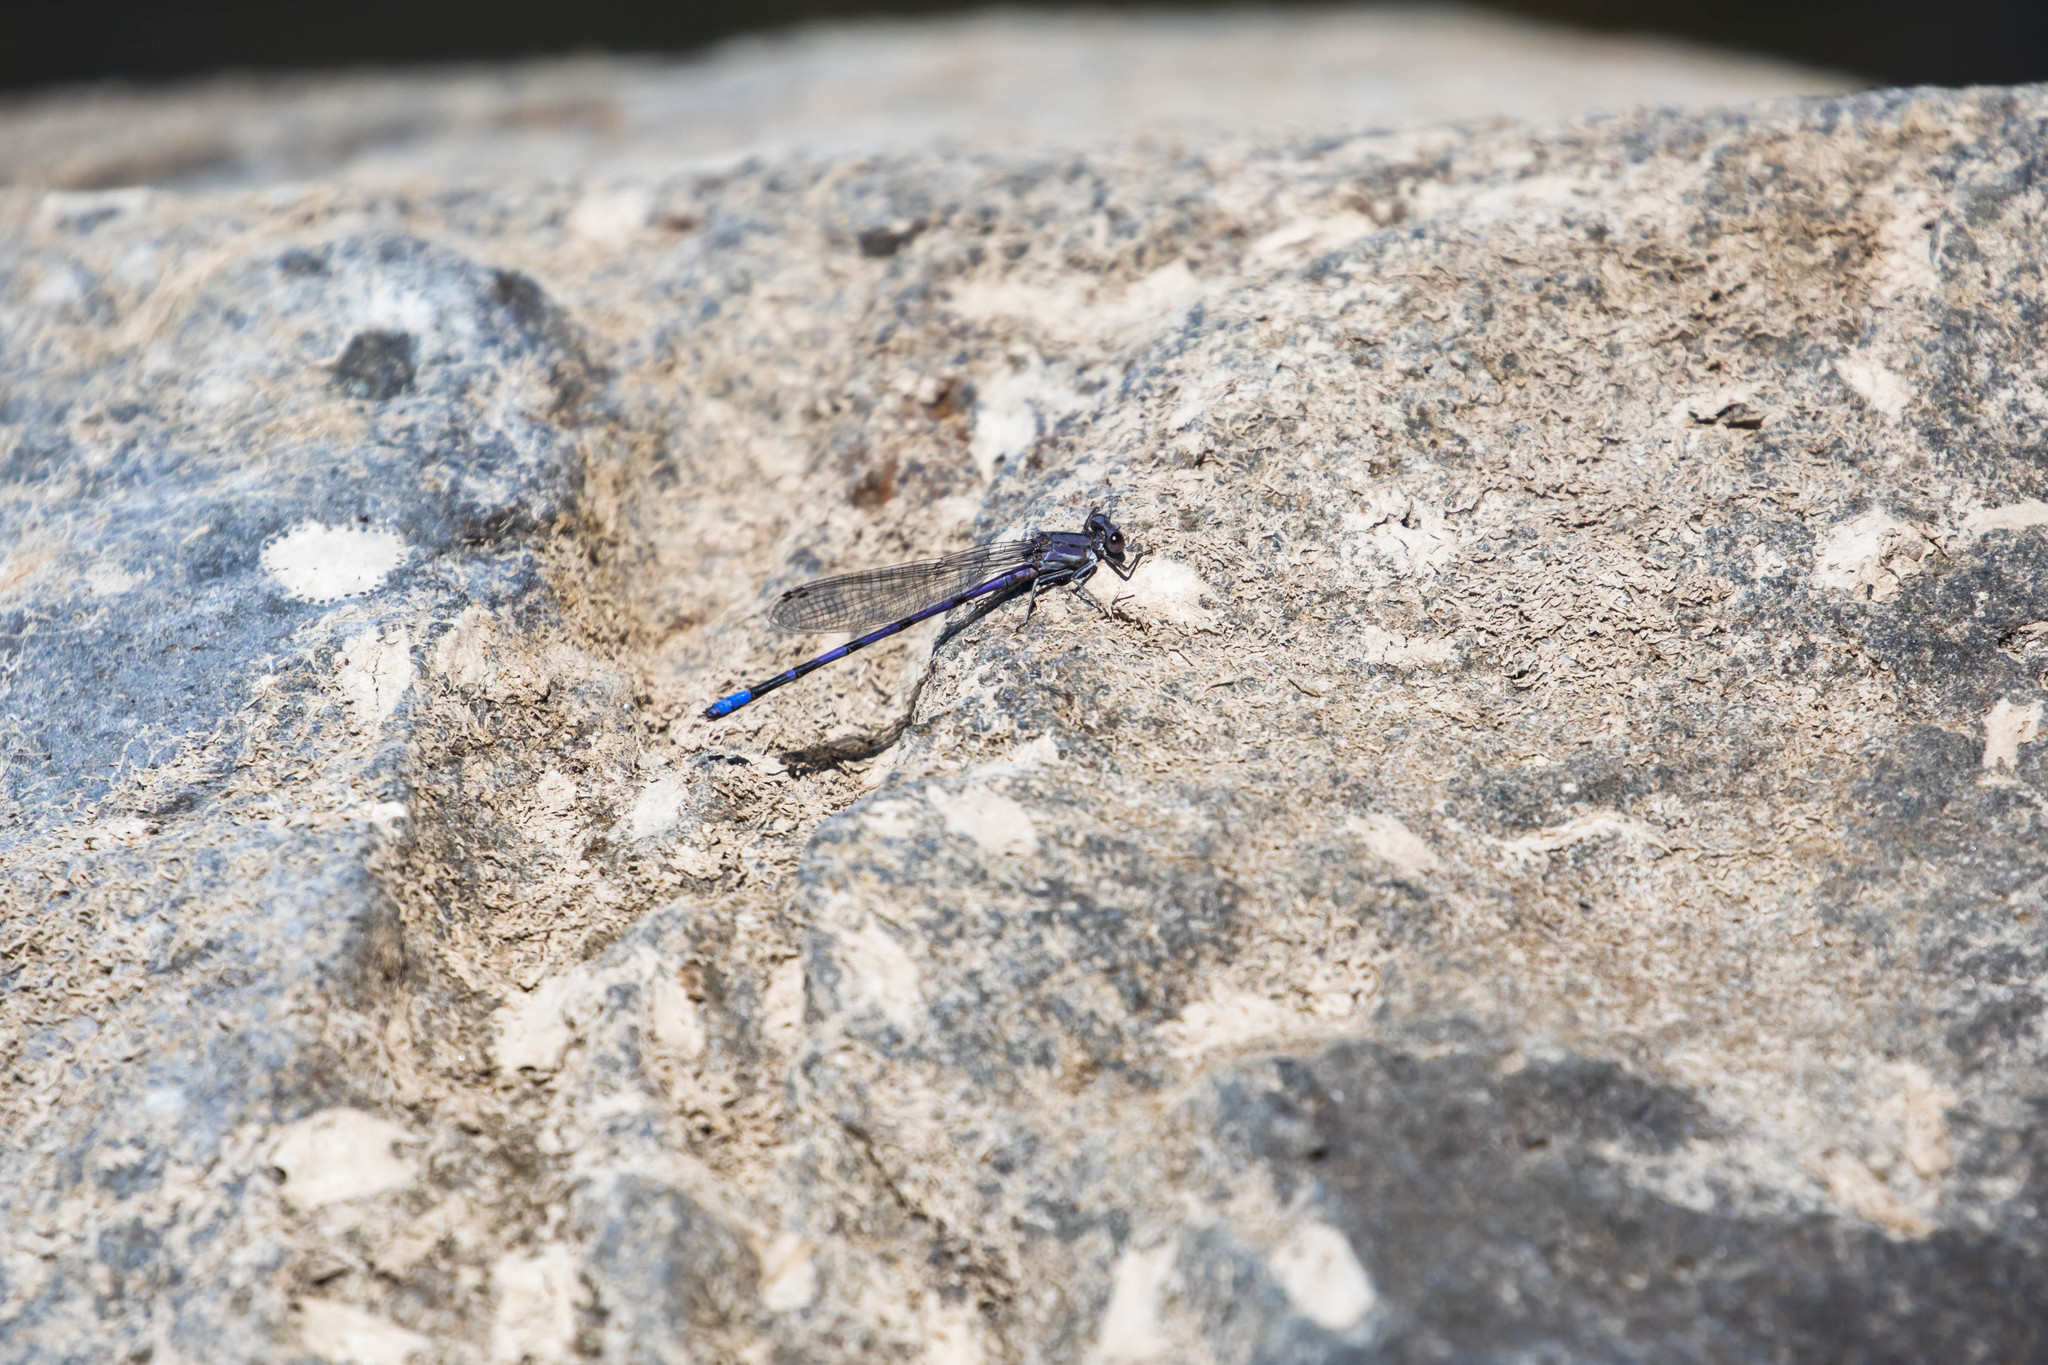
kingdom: Animalia
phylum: Arthropoda
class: Insecta
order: Odonata
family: Coenagrionidae
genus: Argia
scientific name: Argia emma
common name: Emma's dancer
